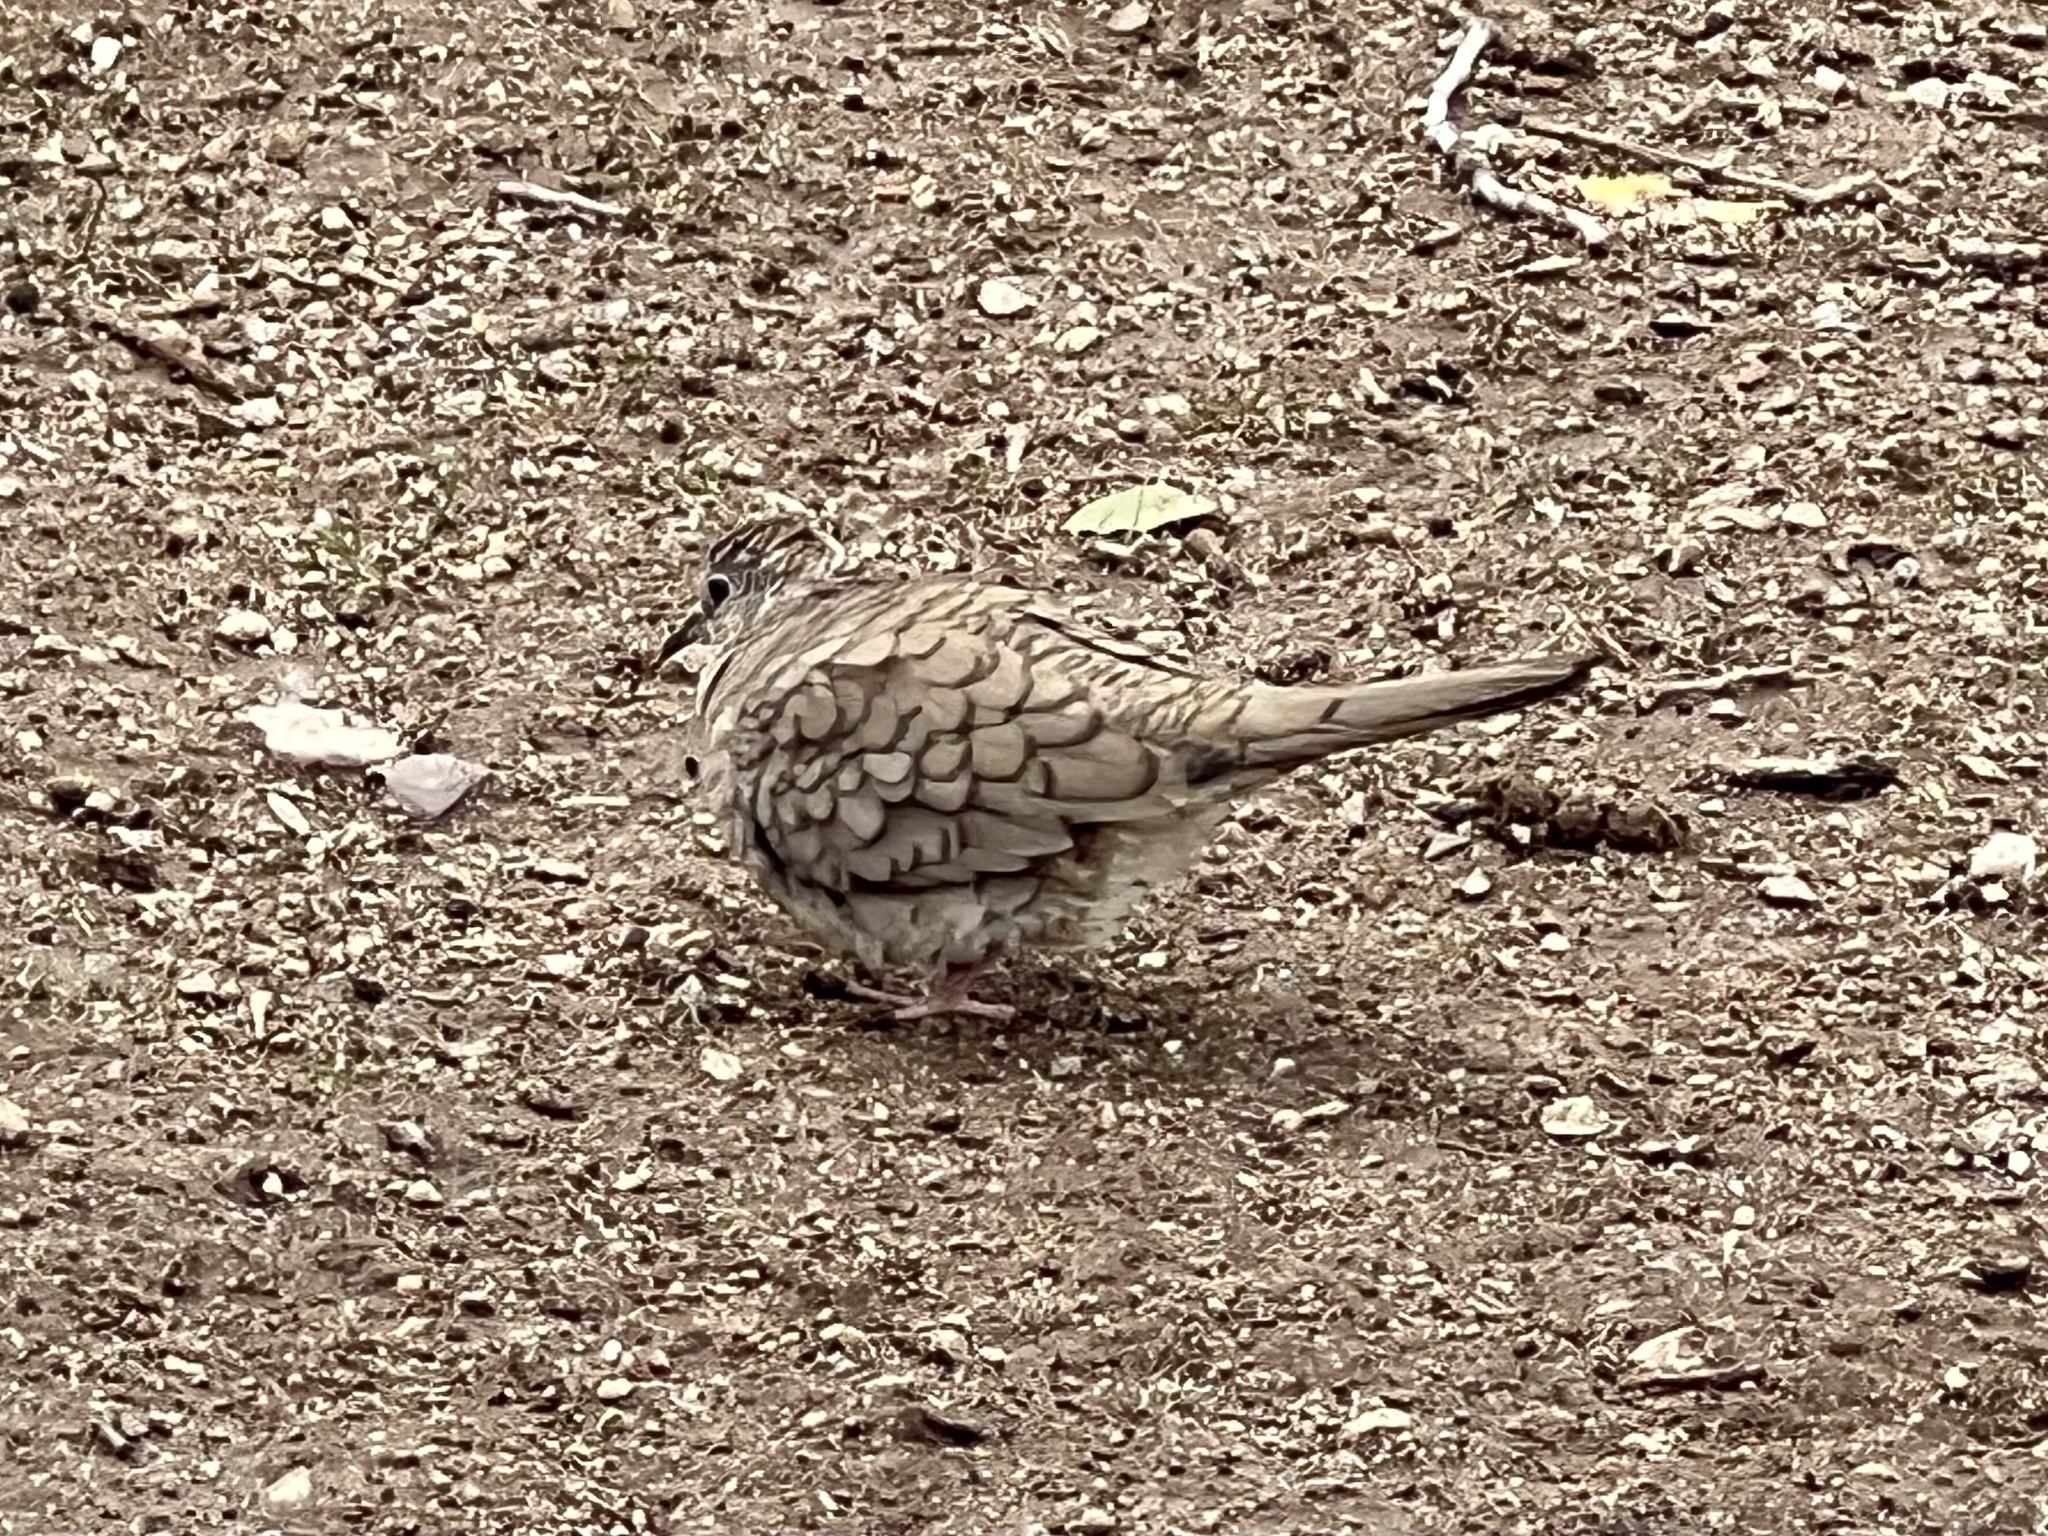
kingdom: Animalia
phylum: Chordata
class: Aves
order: Columbiformes
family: Columbidae
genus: Columbina
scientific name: Columbina inca
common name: Inca dove
